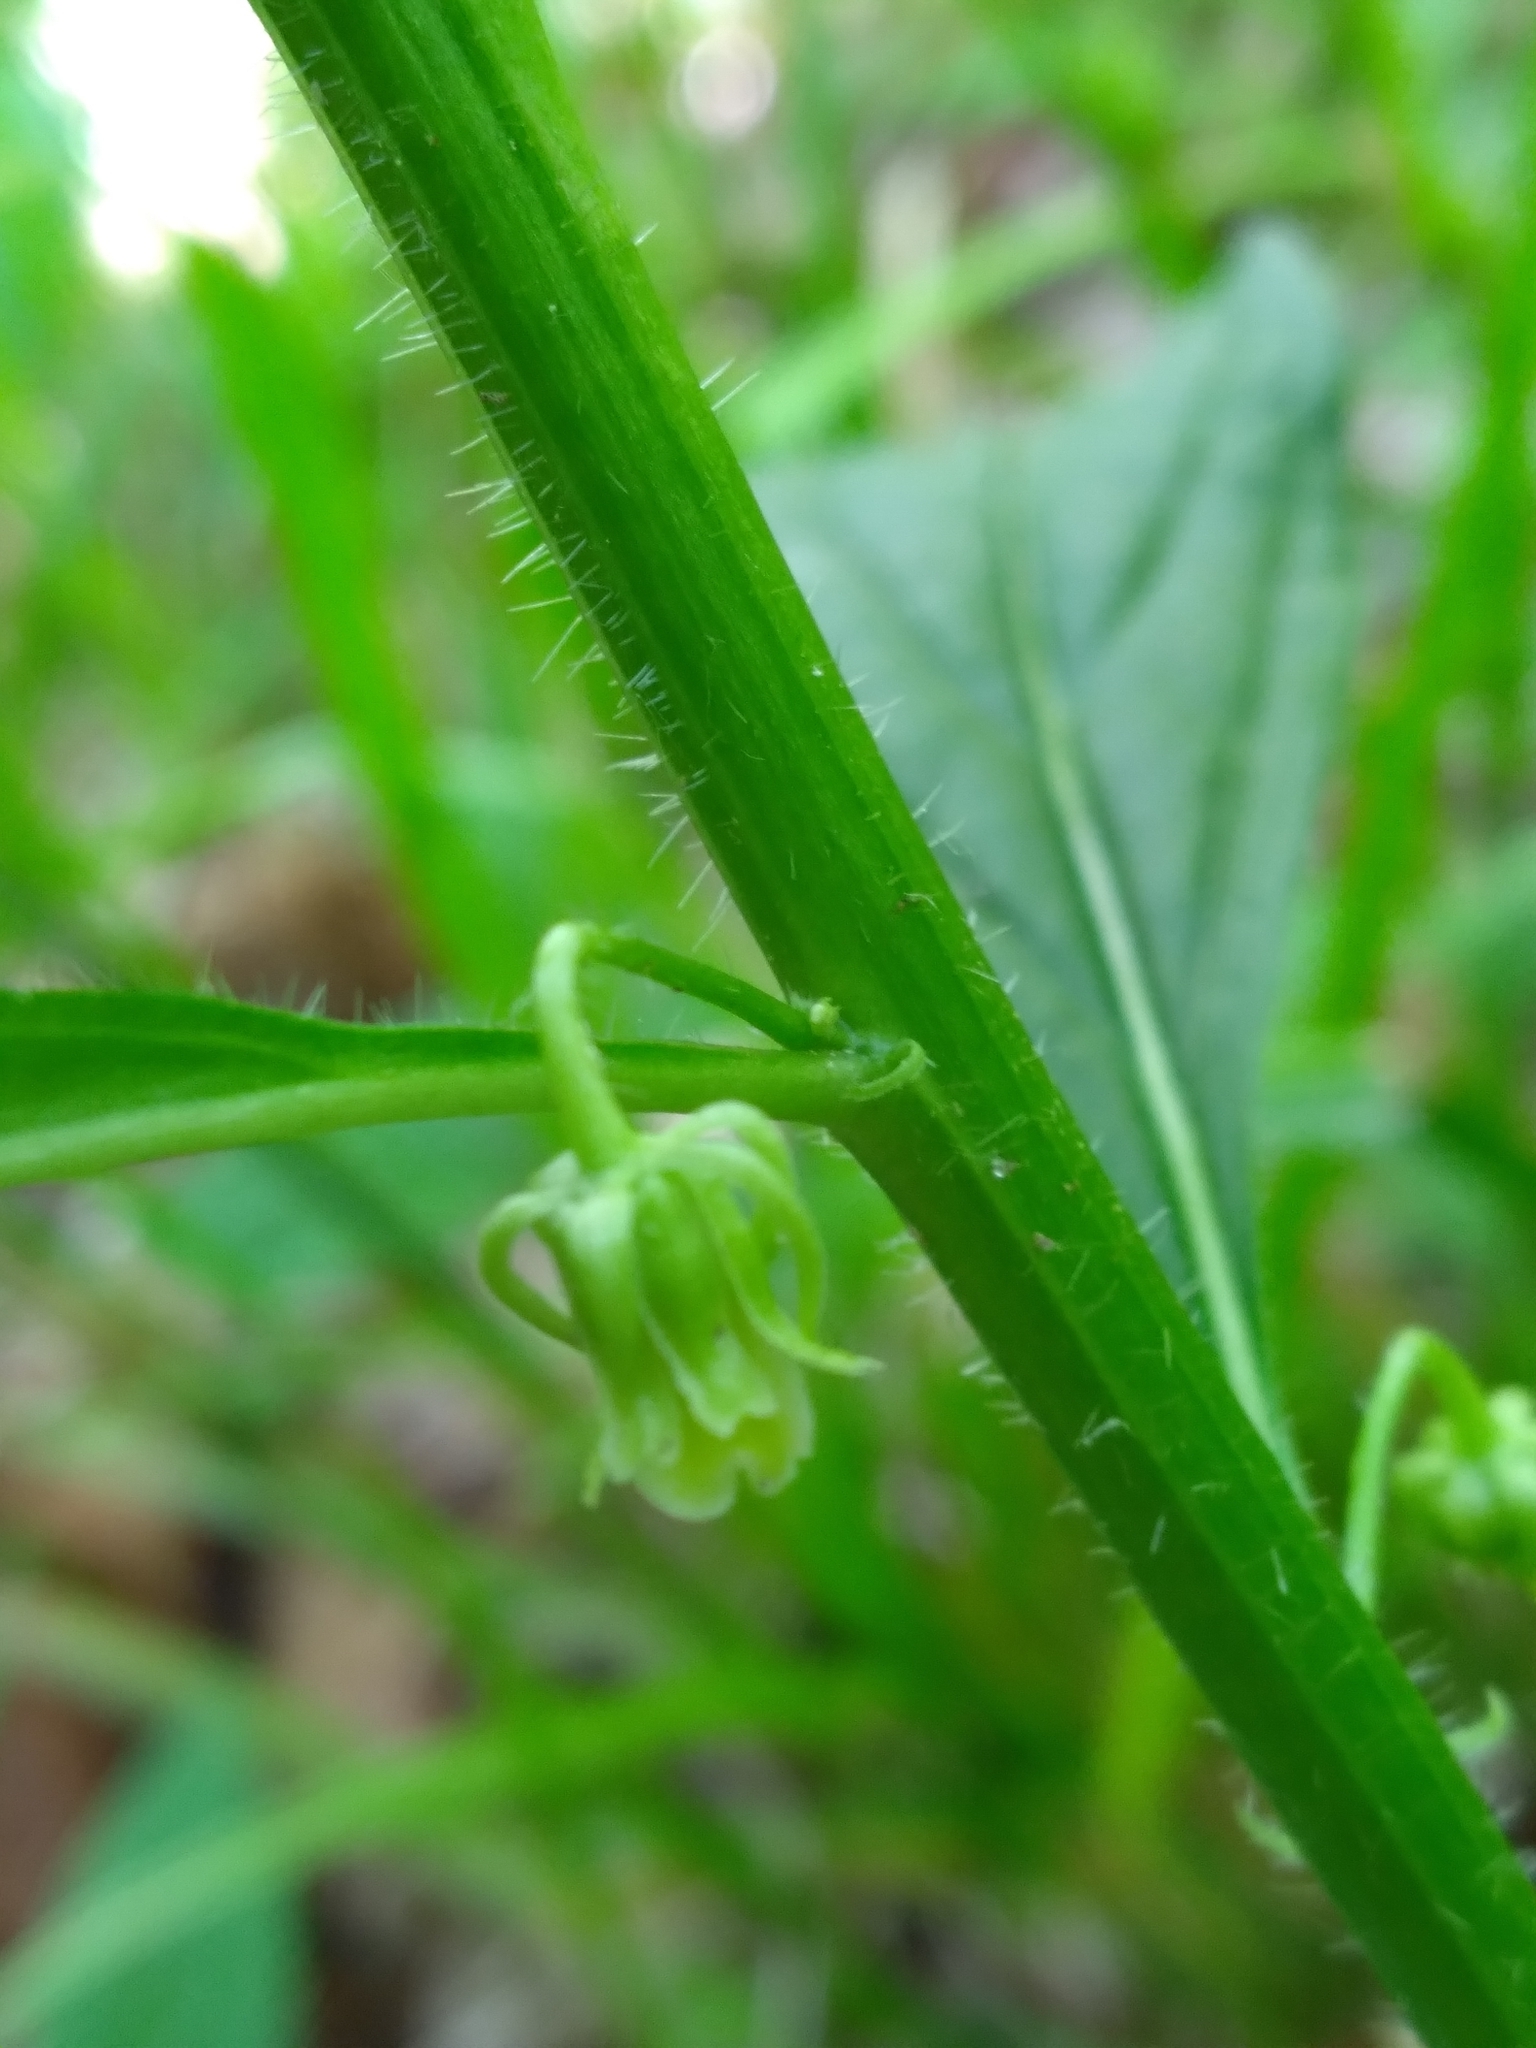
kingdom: Plantae
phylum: Tracheophyta
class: Magnoliopsida
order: Malpighiales
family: Violaceae
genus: Cubelium
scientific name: Cubelium concolor
